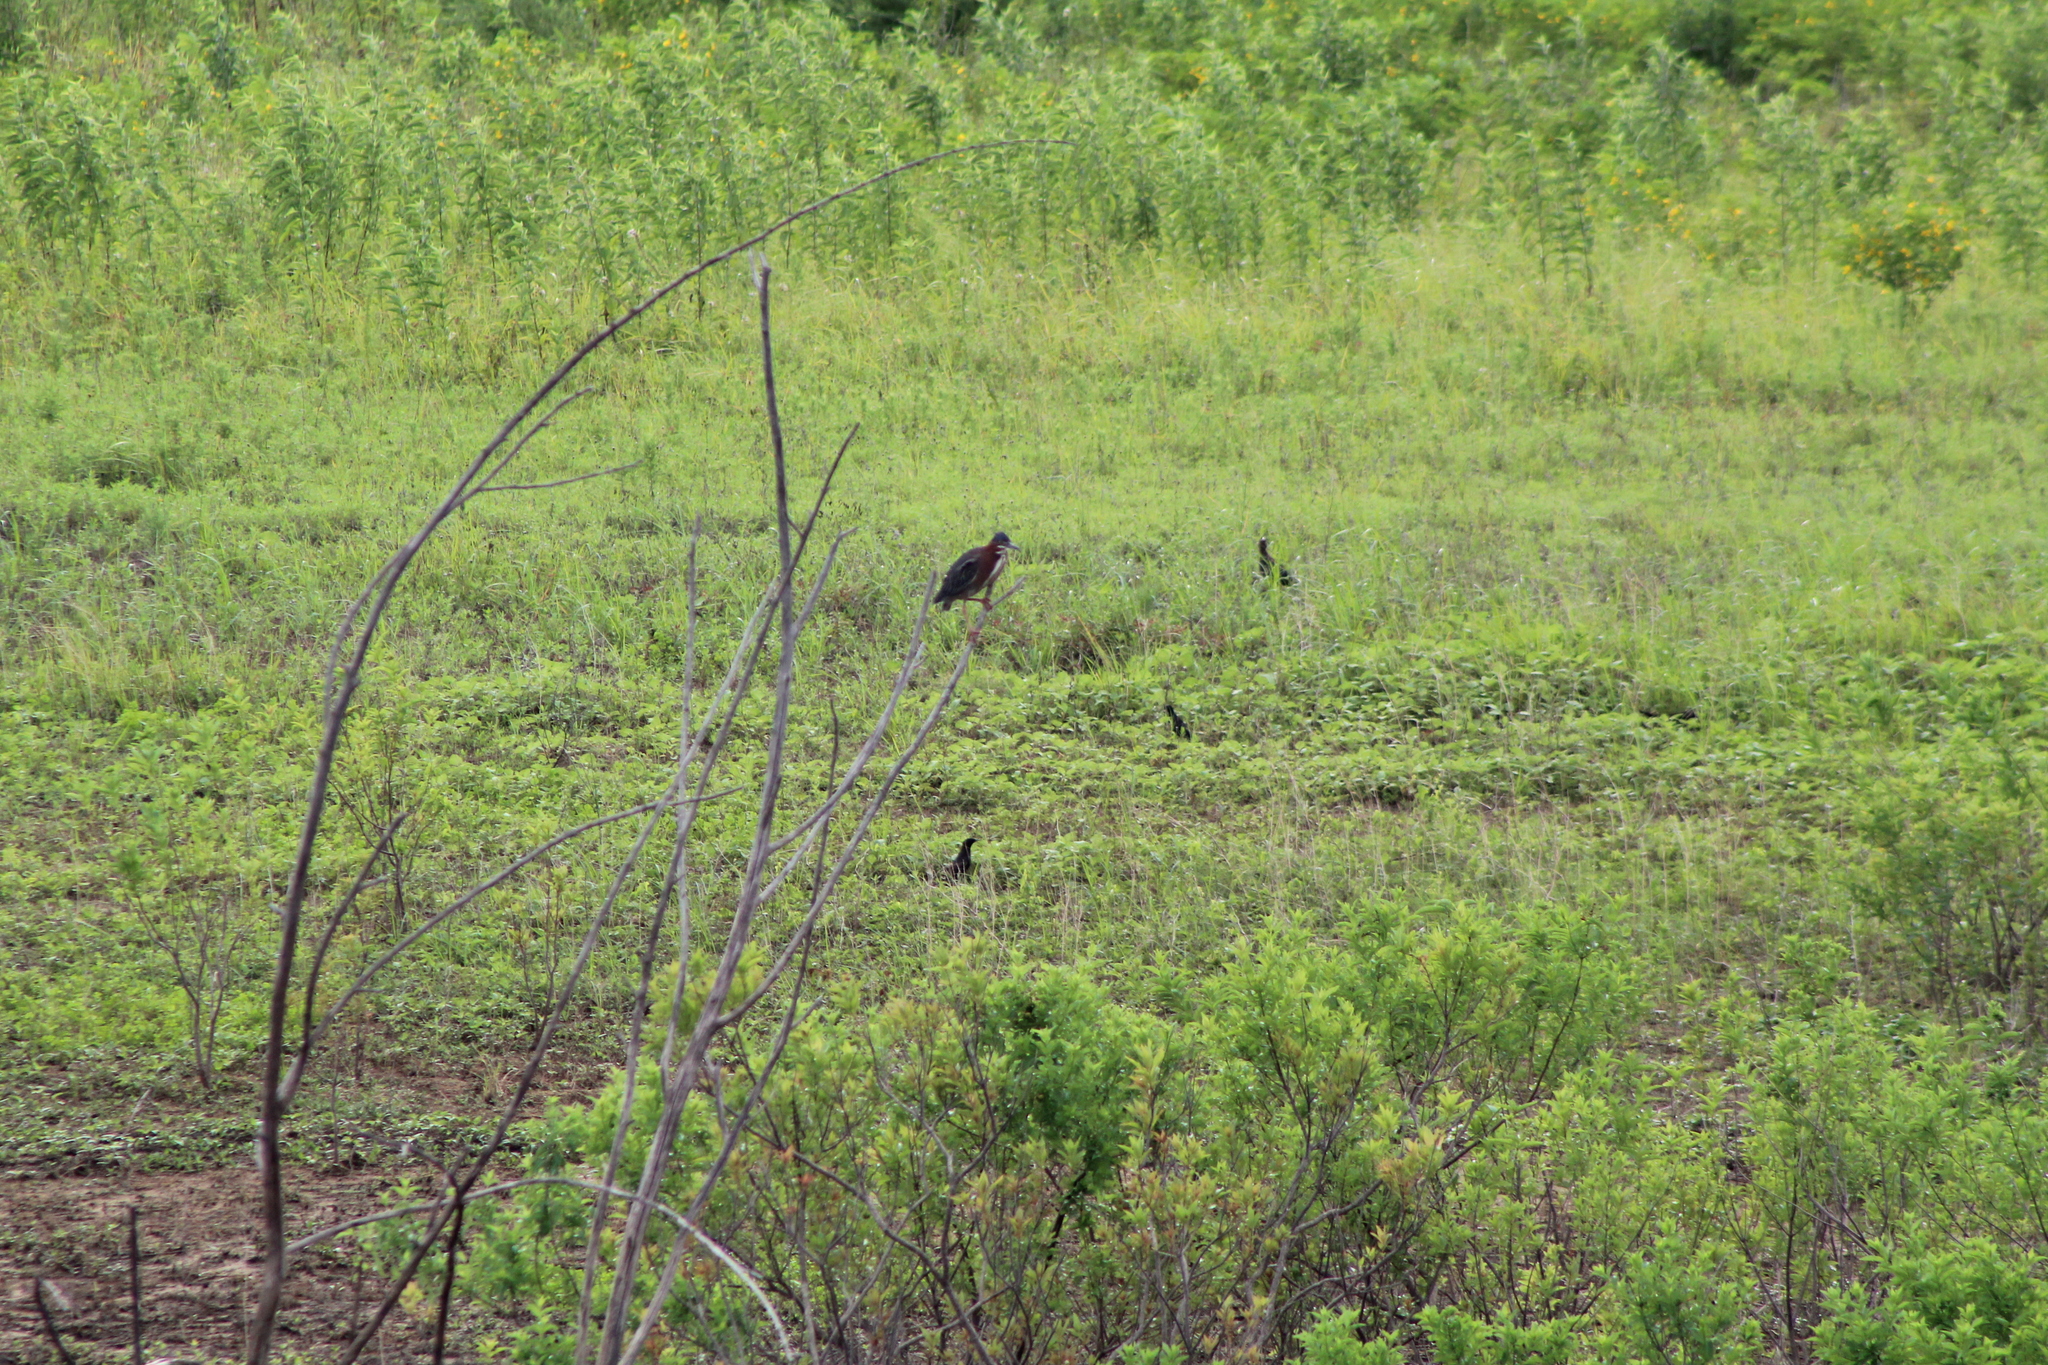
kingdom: Animalia
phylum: Chordata
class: Aves
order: Pelecaniformes
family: Ardeidae
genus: Butorides
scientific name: Butorides virescens
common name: Green heron
